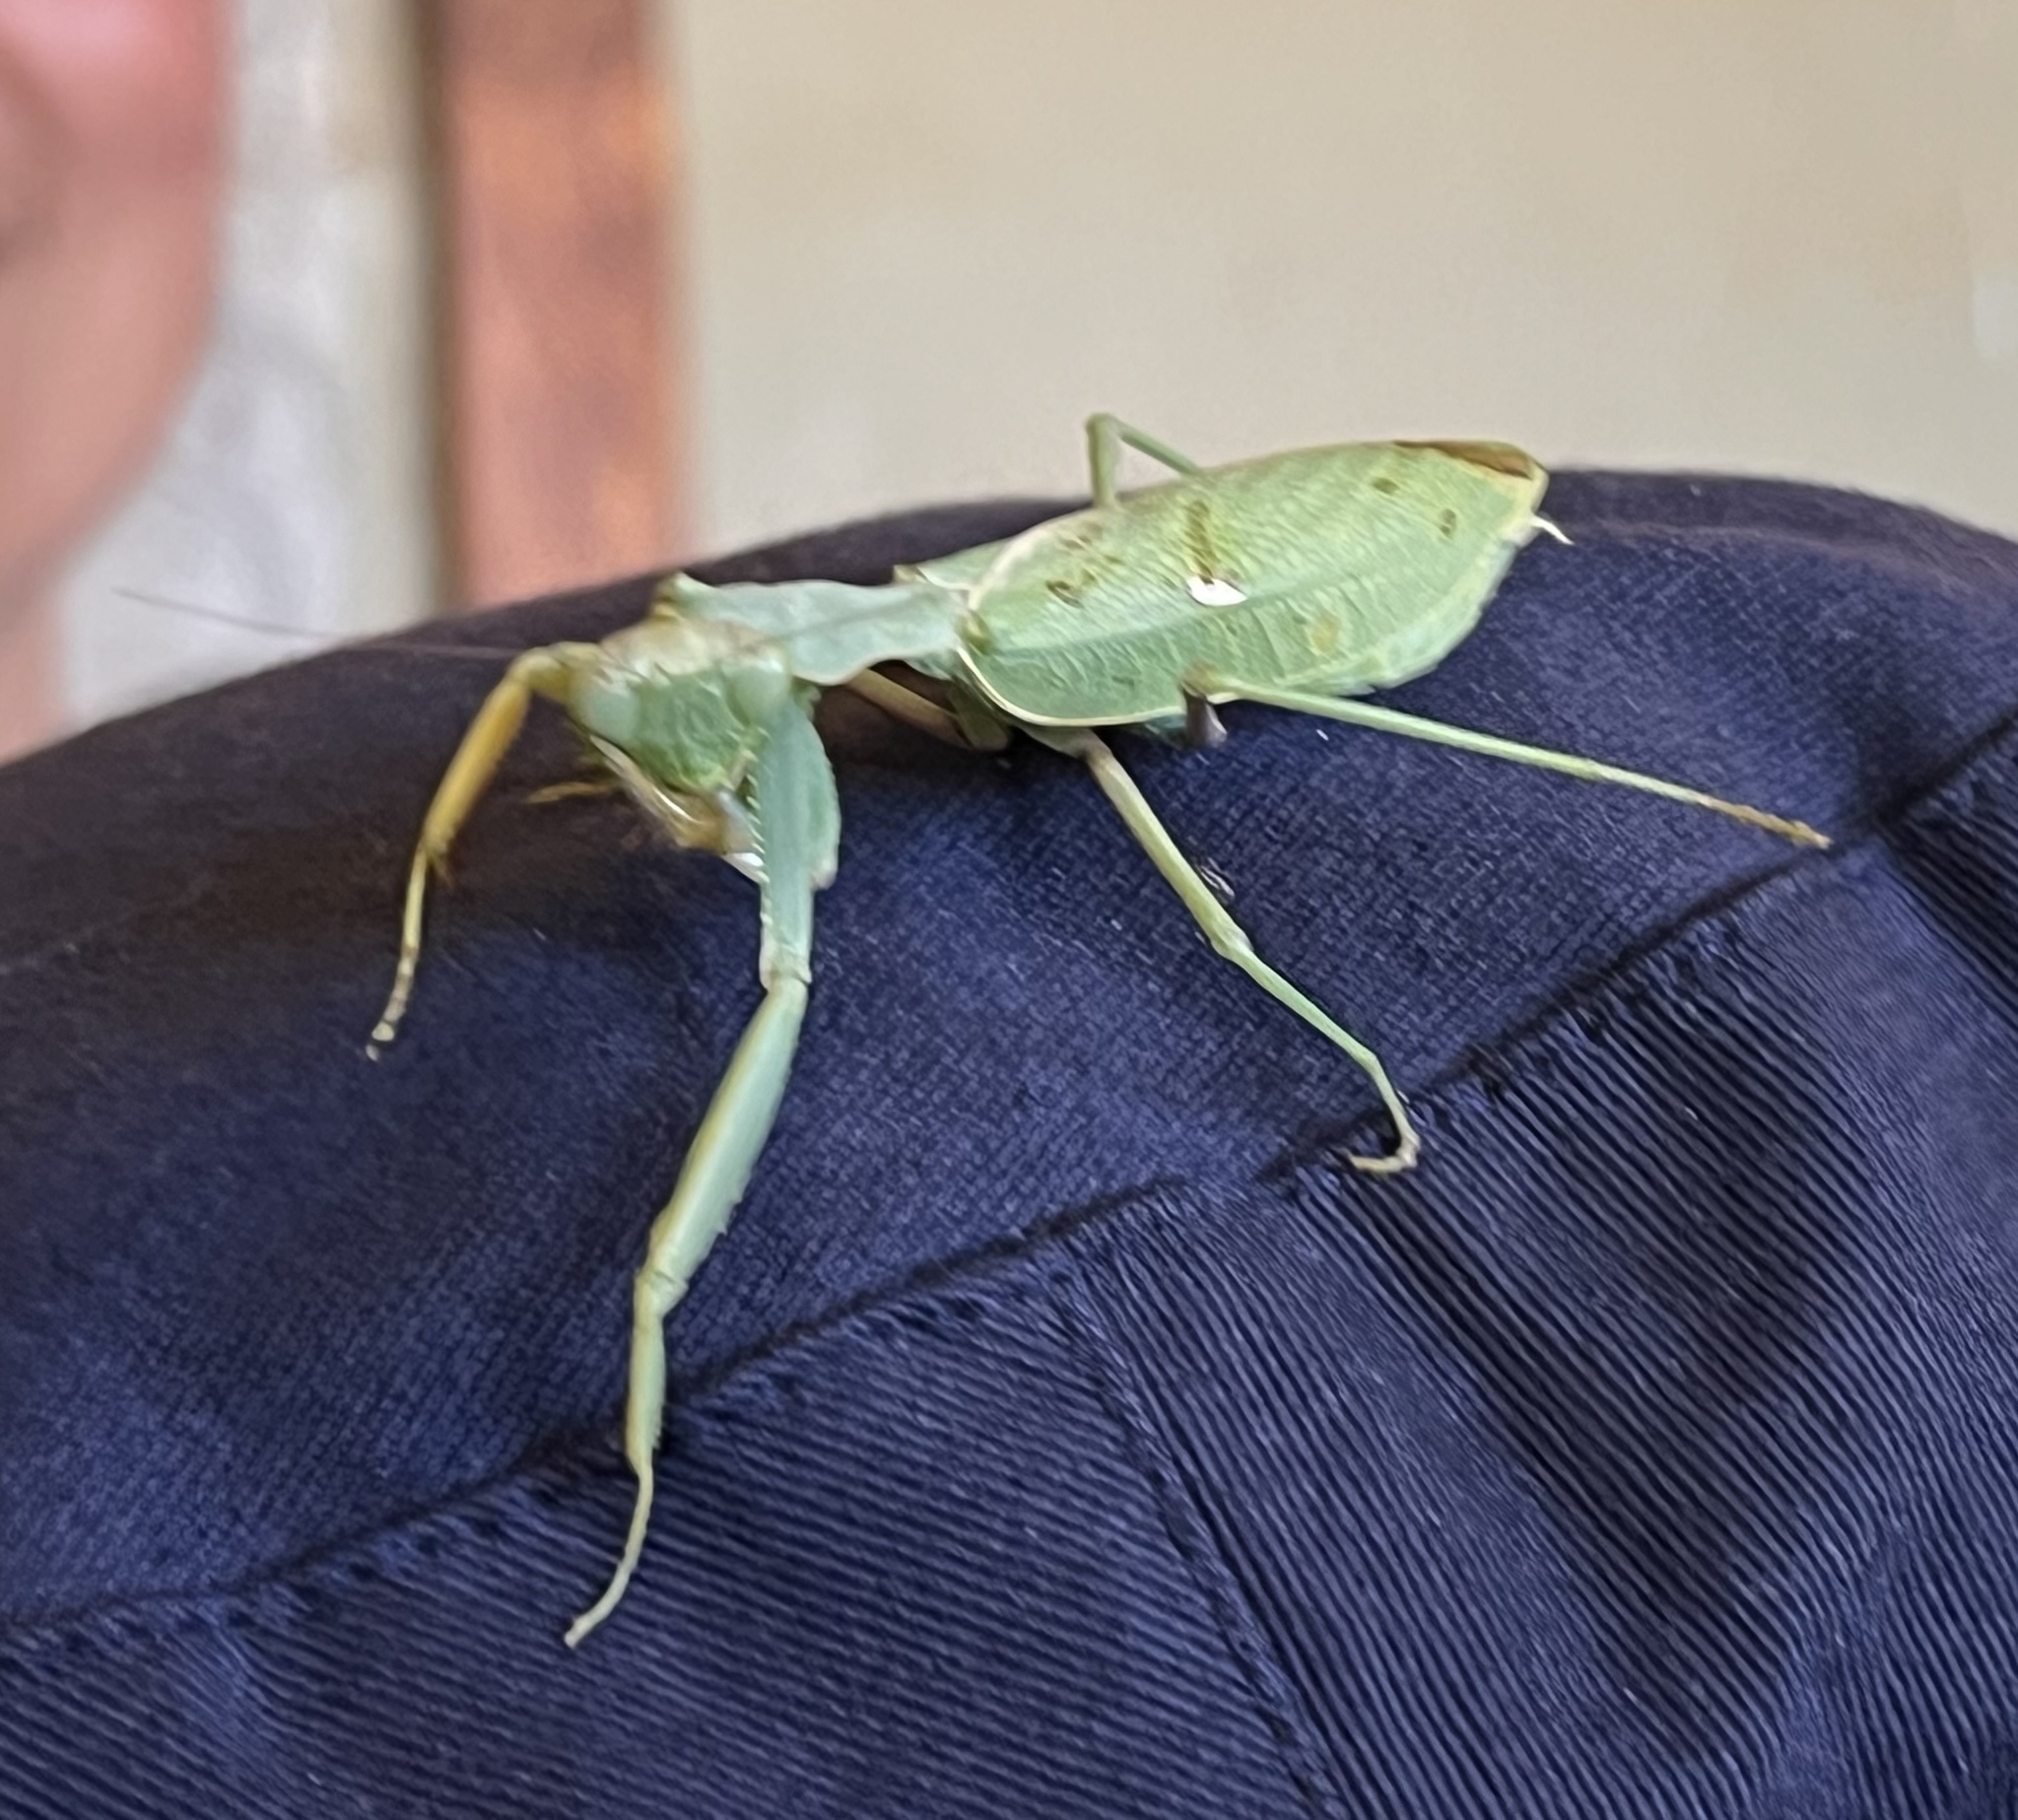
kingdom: Animalia
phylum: Arthropoda
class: Insecta
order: Mantodea
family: Mantidae
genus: Sphodromantis
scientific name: Sphodromantis gastrica
